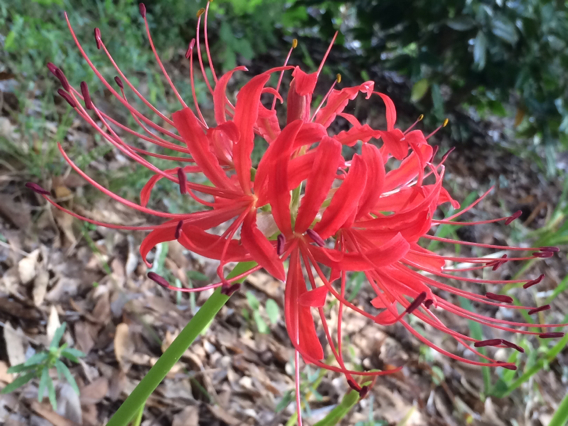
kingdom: Plantae
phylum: Tracheophyta
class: Liliopsida
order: Asparagales
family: Amaryllidaceae
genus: Lycoris
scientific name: Lycoris radiata
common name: Red spider lily
